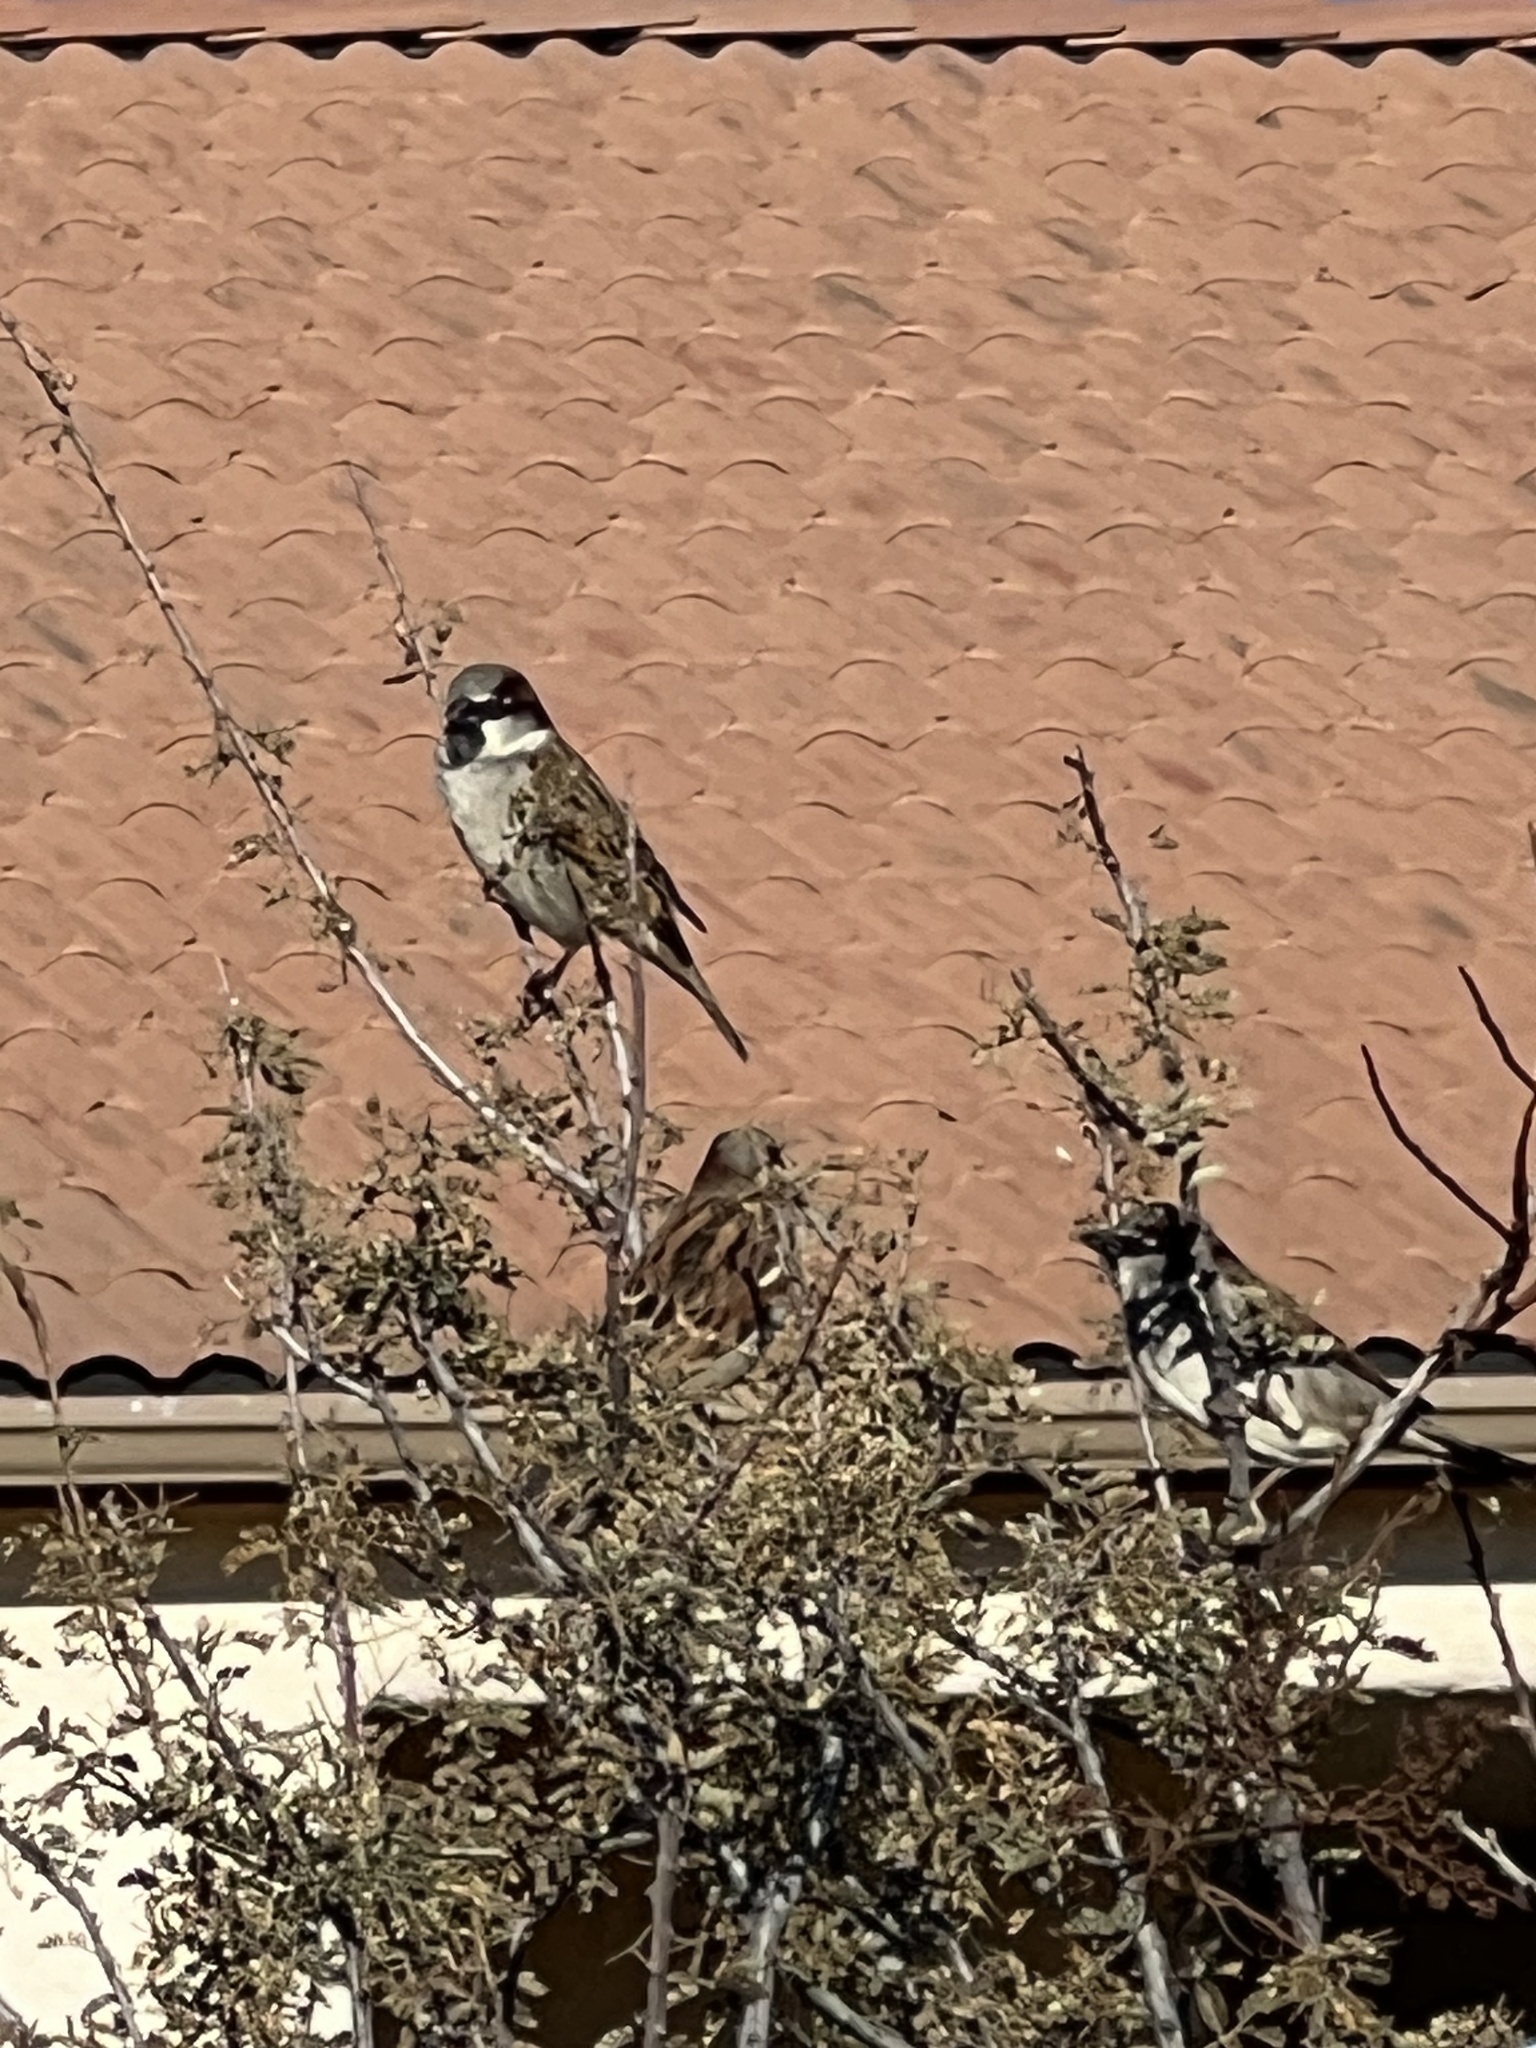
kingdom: Animalia
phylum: Chordata
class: Aves
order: Passeriformes
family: Passeridae
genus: Passer
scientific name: Passer domesticus
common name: House sparrow
